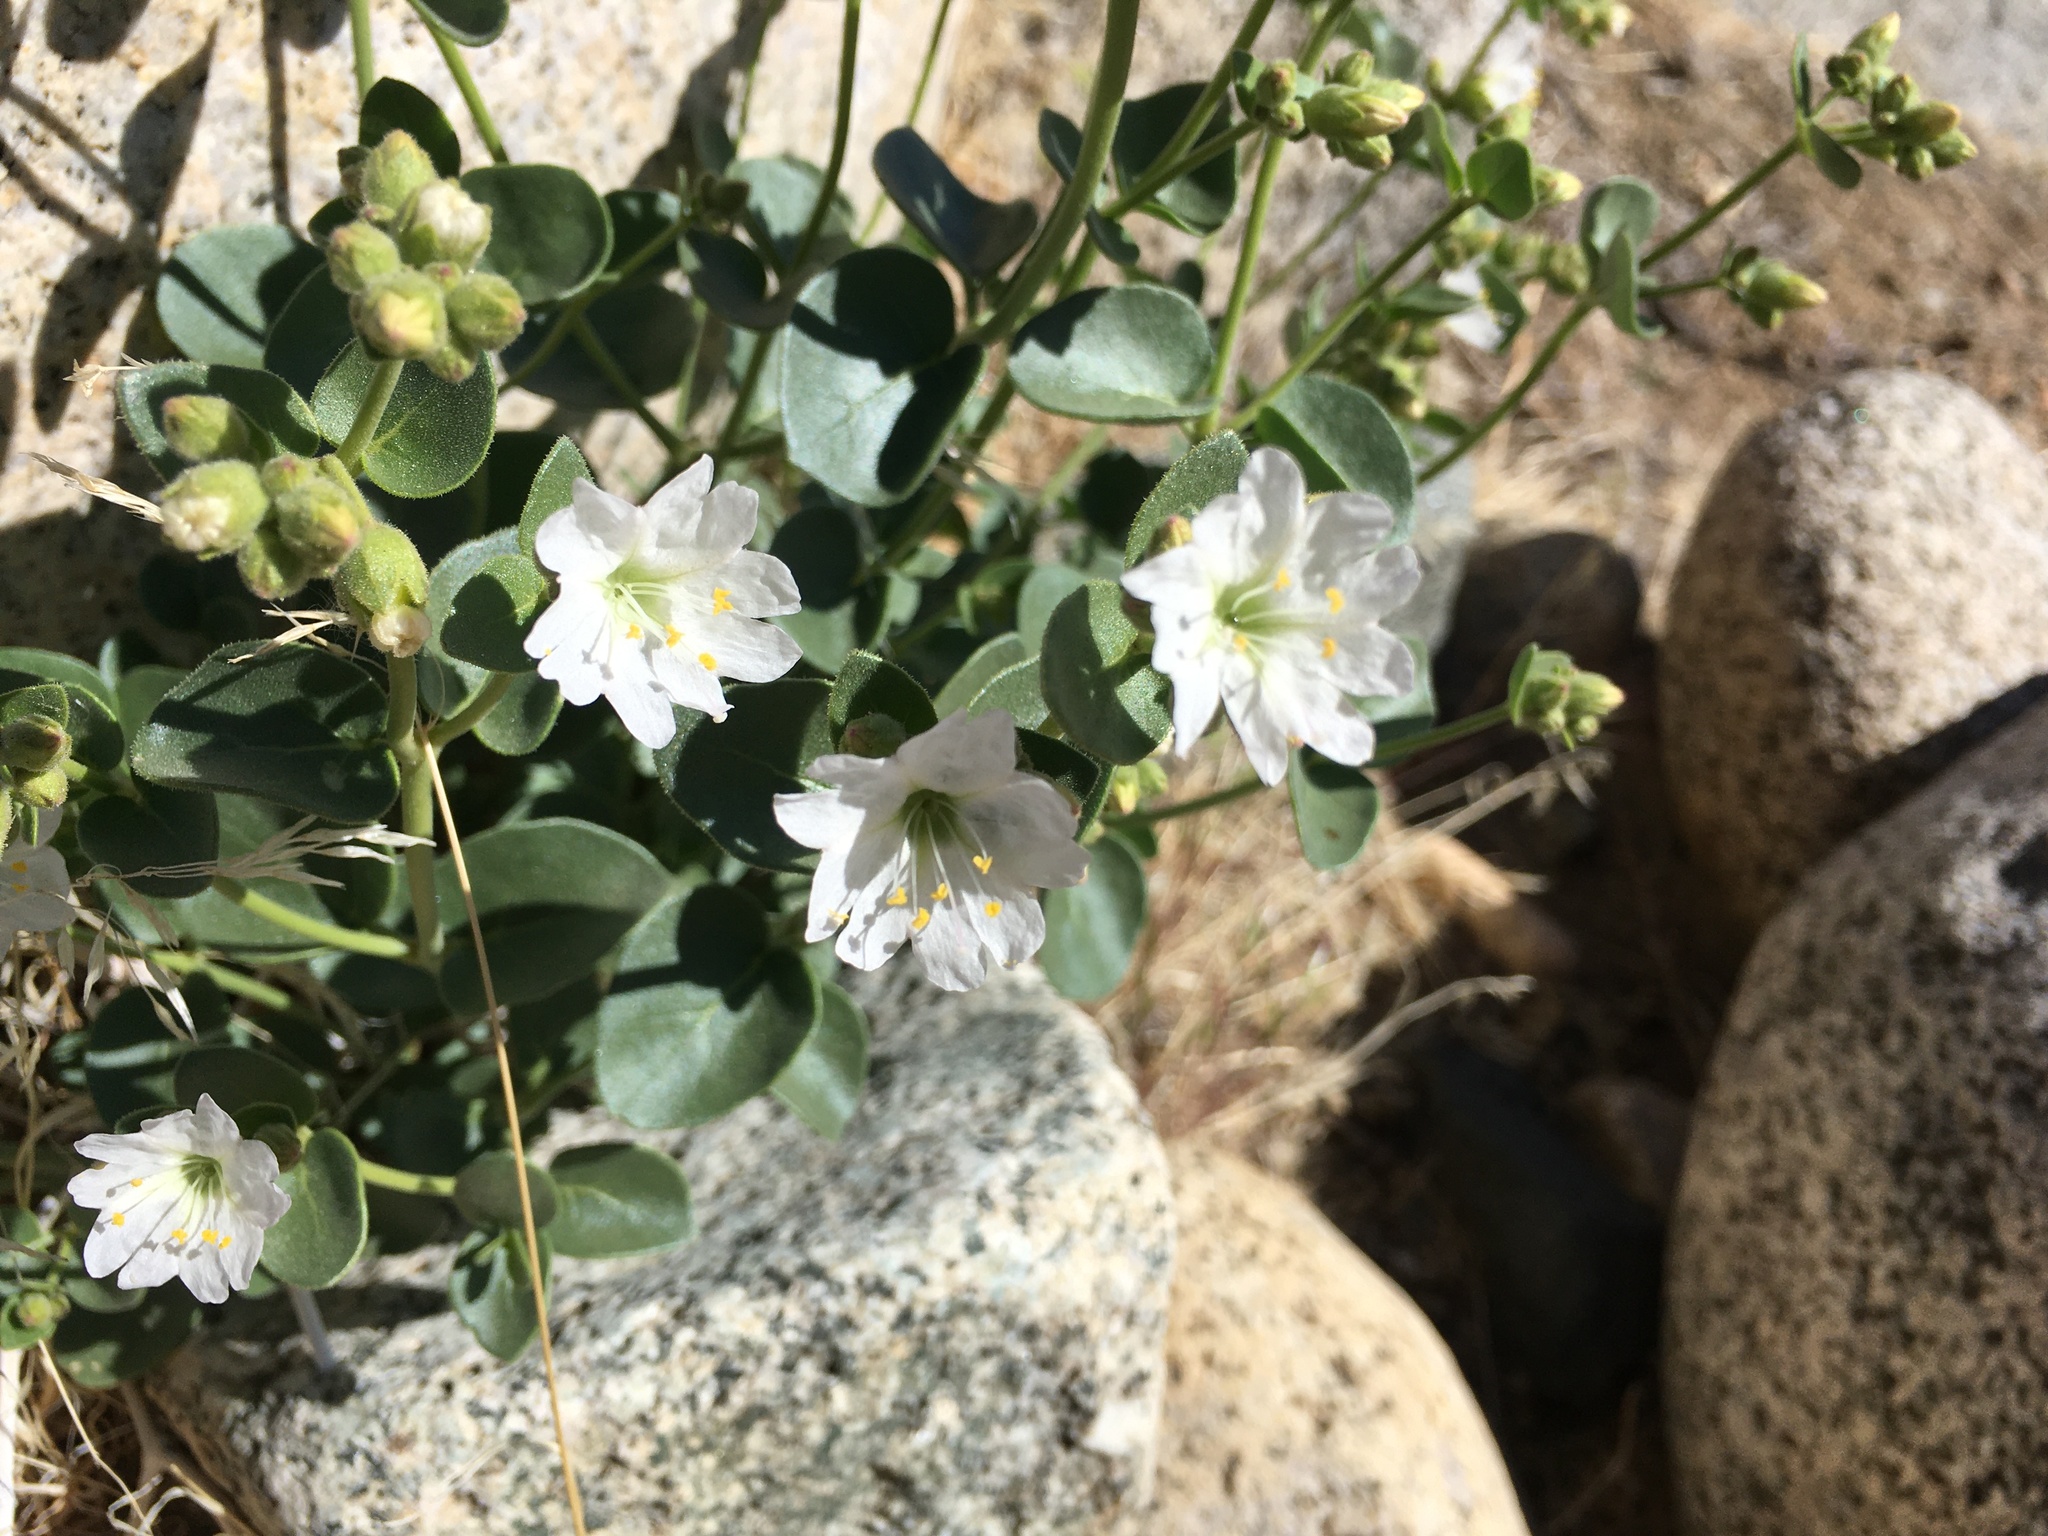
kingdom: Plantae
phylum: Tracheophyta
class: Magnoliopsida
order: Caryophyllales
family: Nyctaginaceae
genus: Mirabilis
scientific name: Mirabilis laevis
